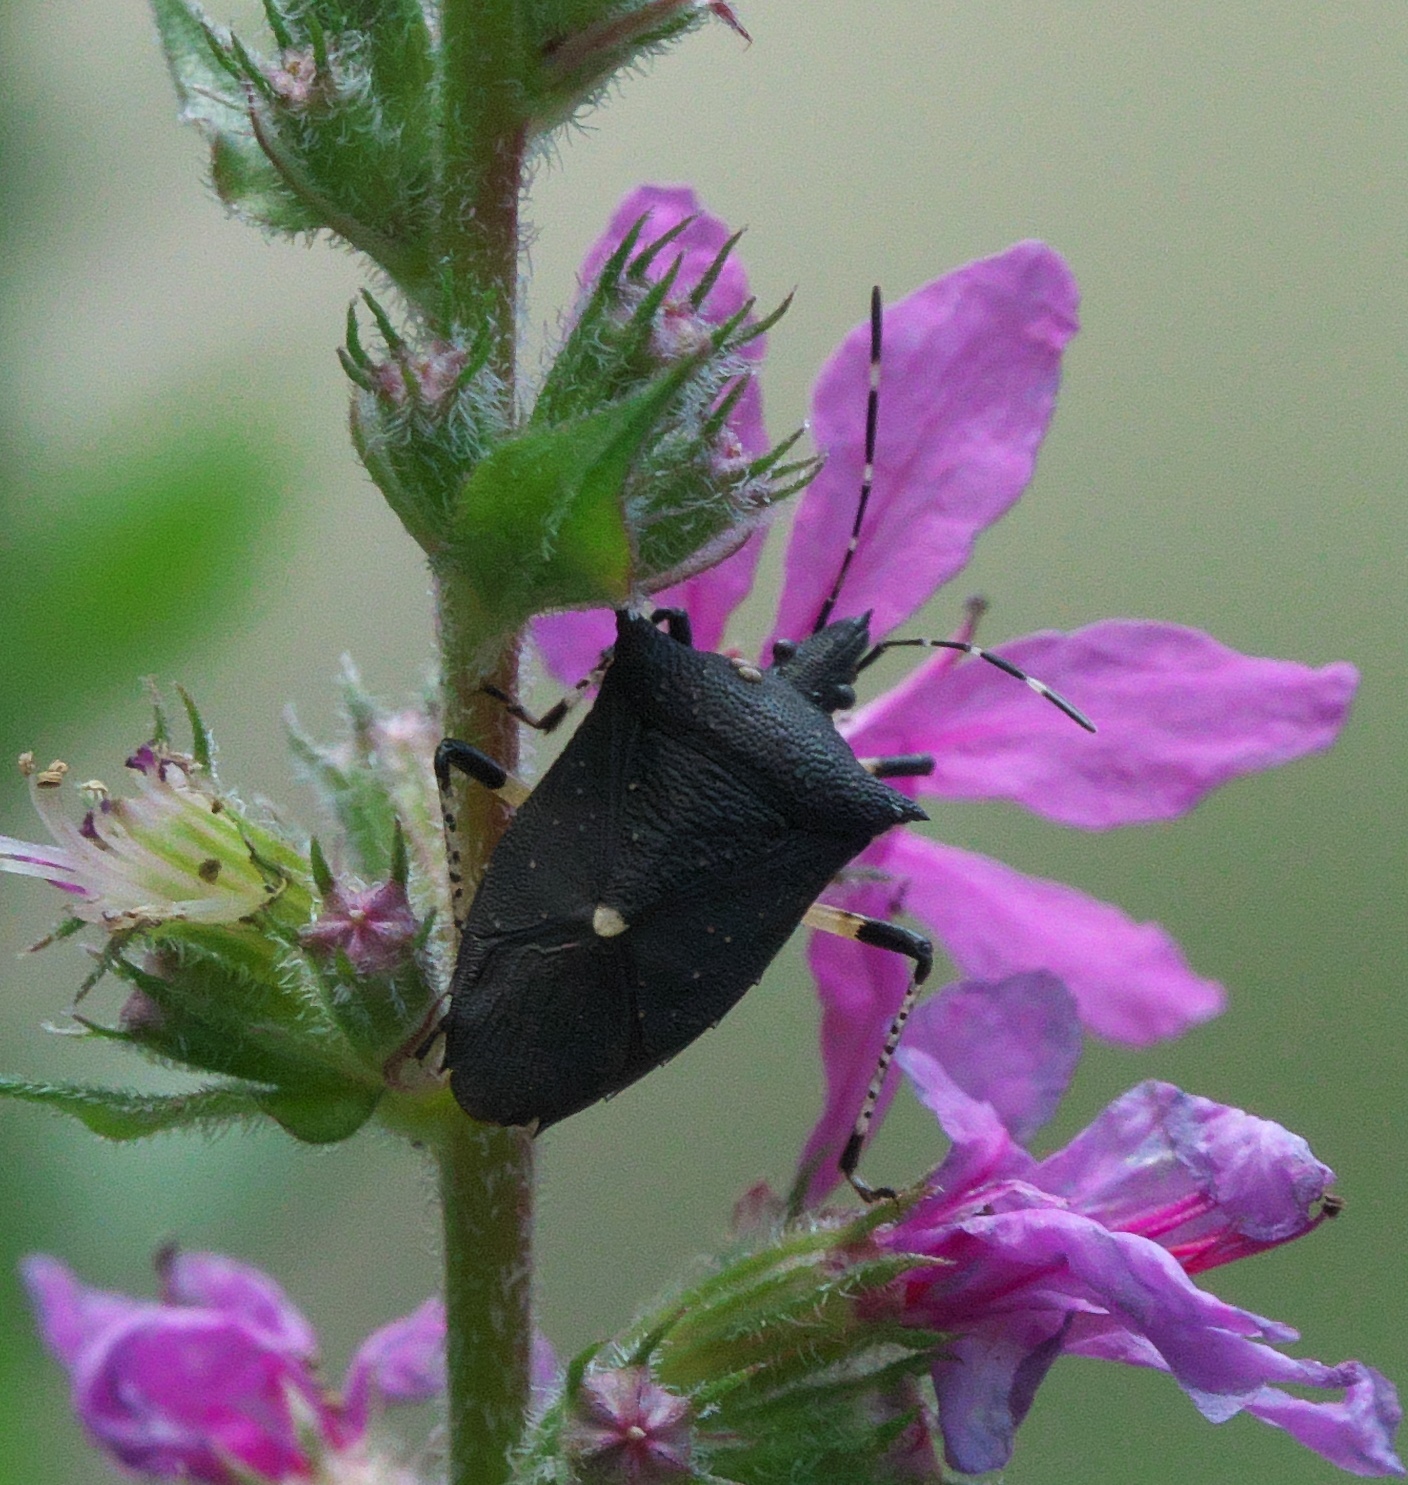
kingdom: Animalia
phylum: Arthropoda
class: Insecta
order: Hemiptera
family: Pentatomidae
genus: Proxys
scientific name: Proxys punctulatus
